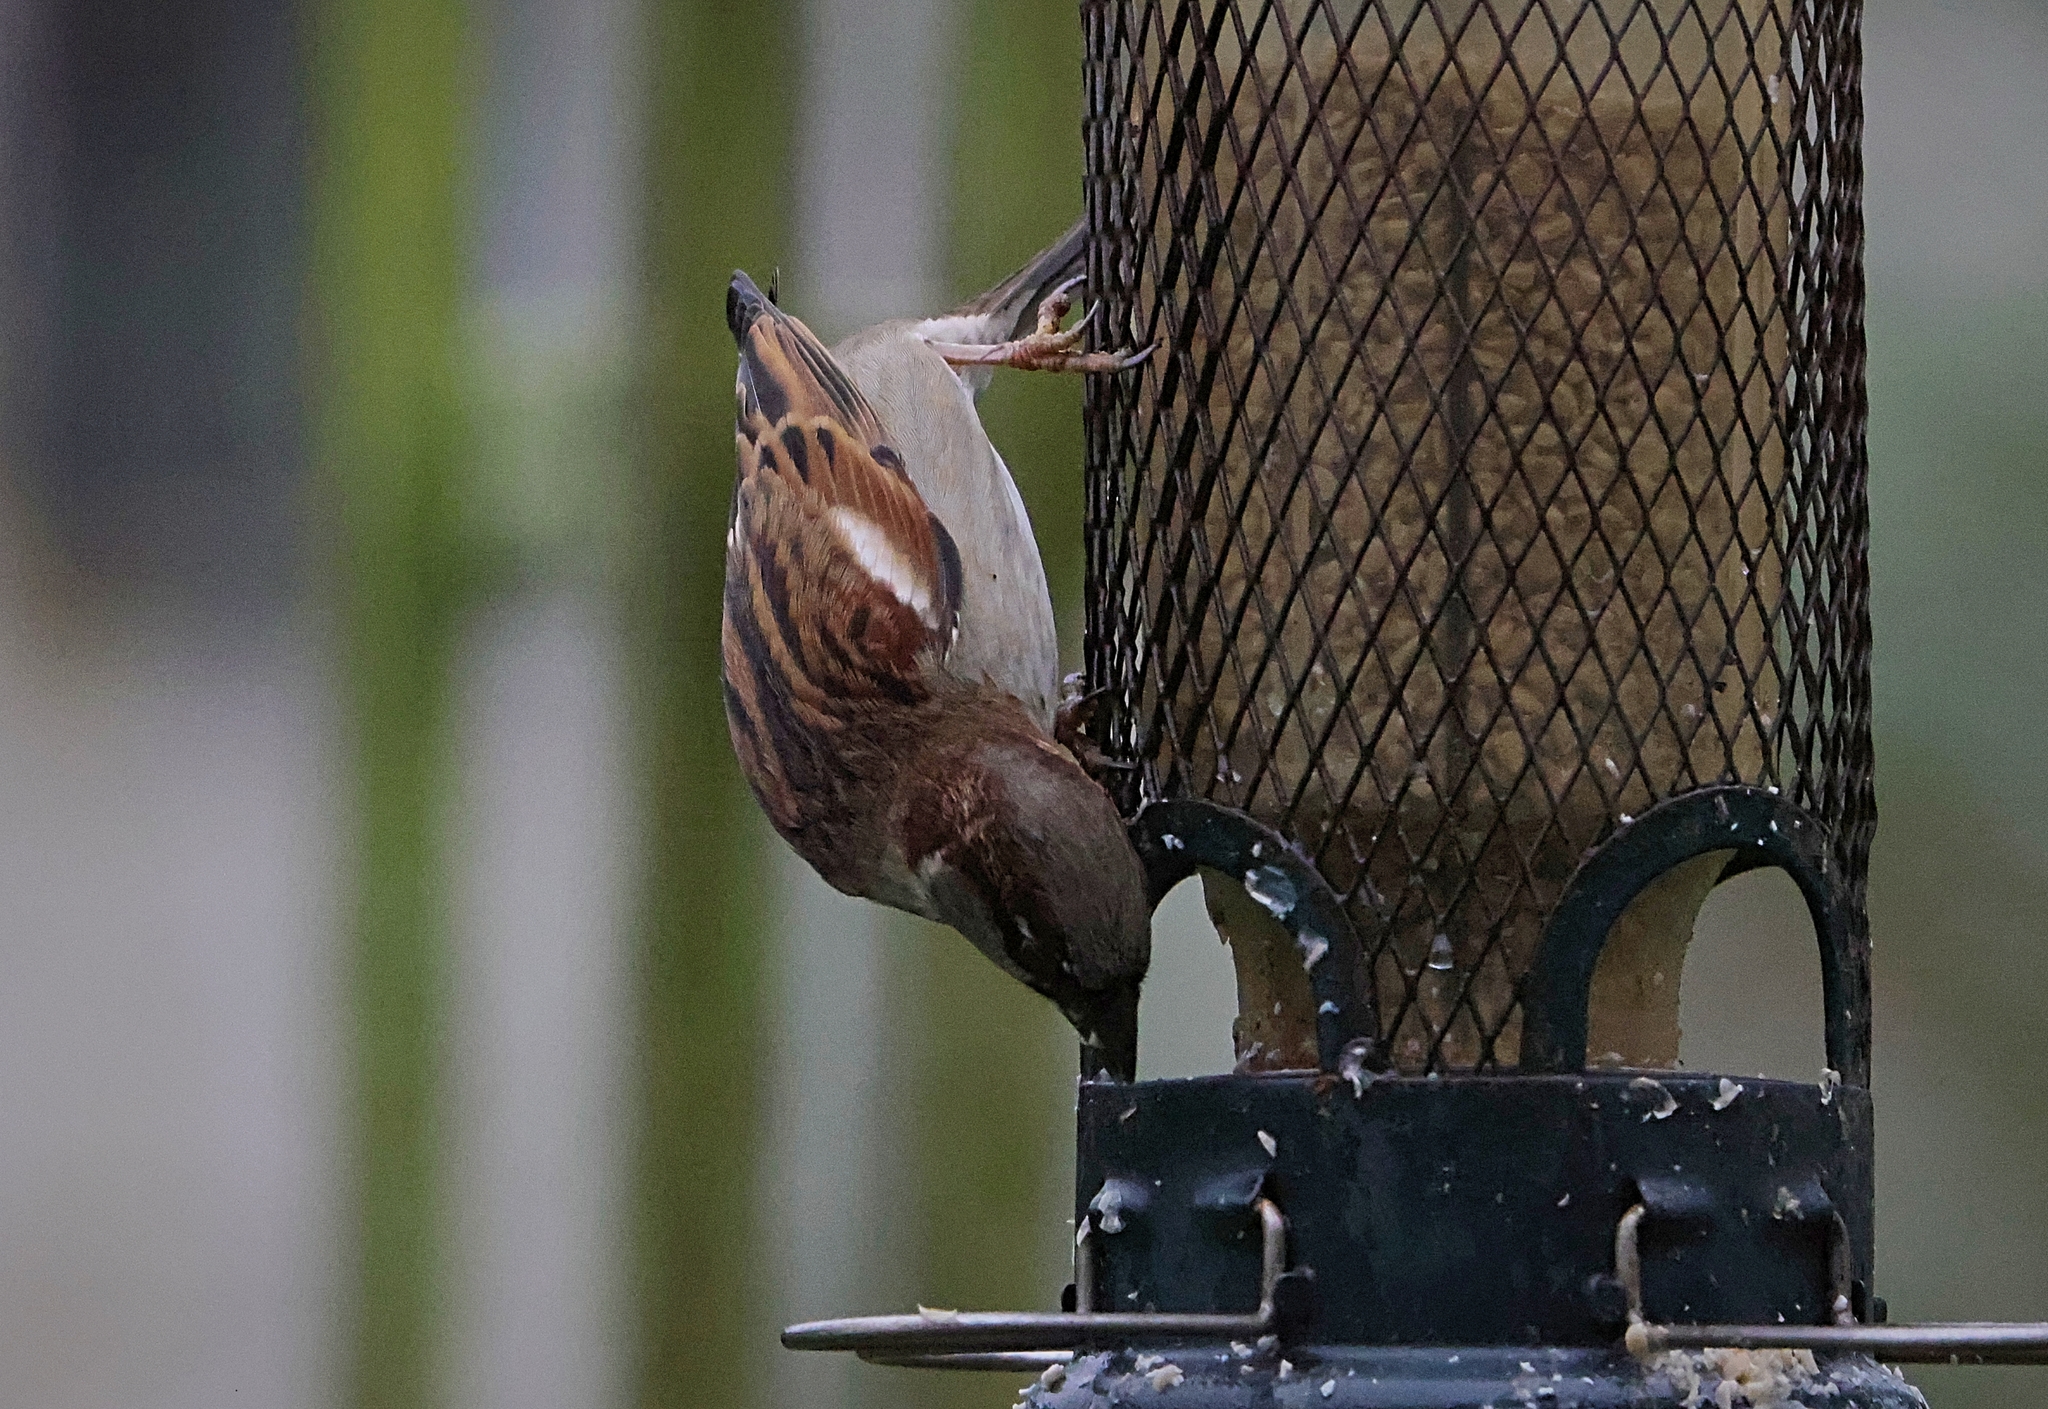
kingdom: Animalia
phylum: Chordata
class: Aves
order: Passeriformes
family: Passeridae
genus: Passer
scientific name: Passer domesticus
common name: House sparrow
